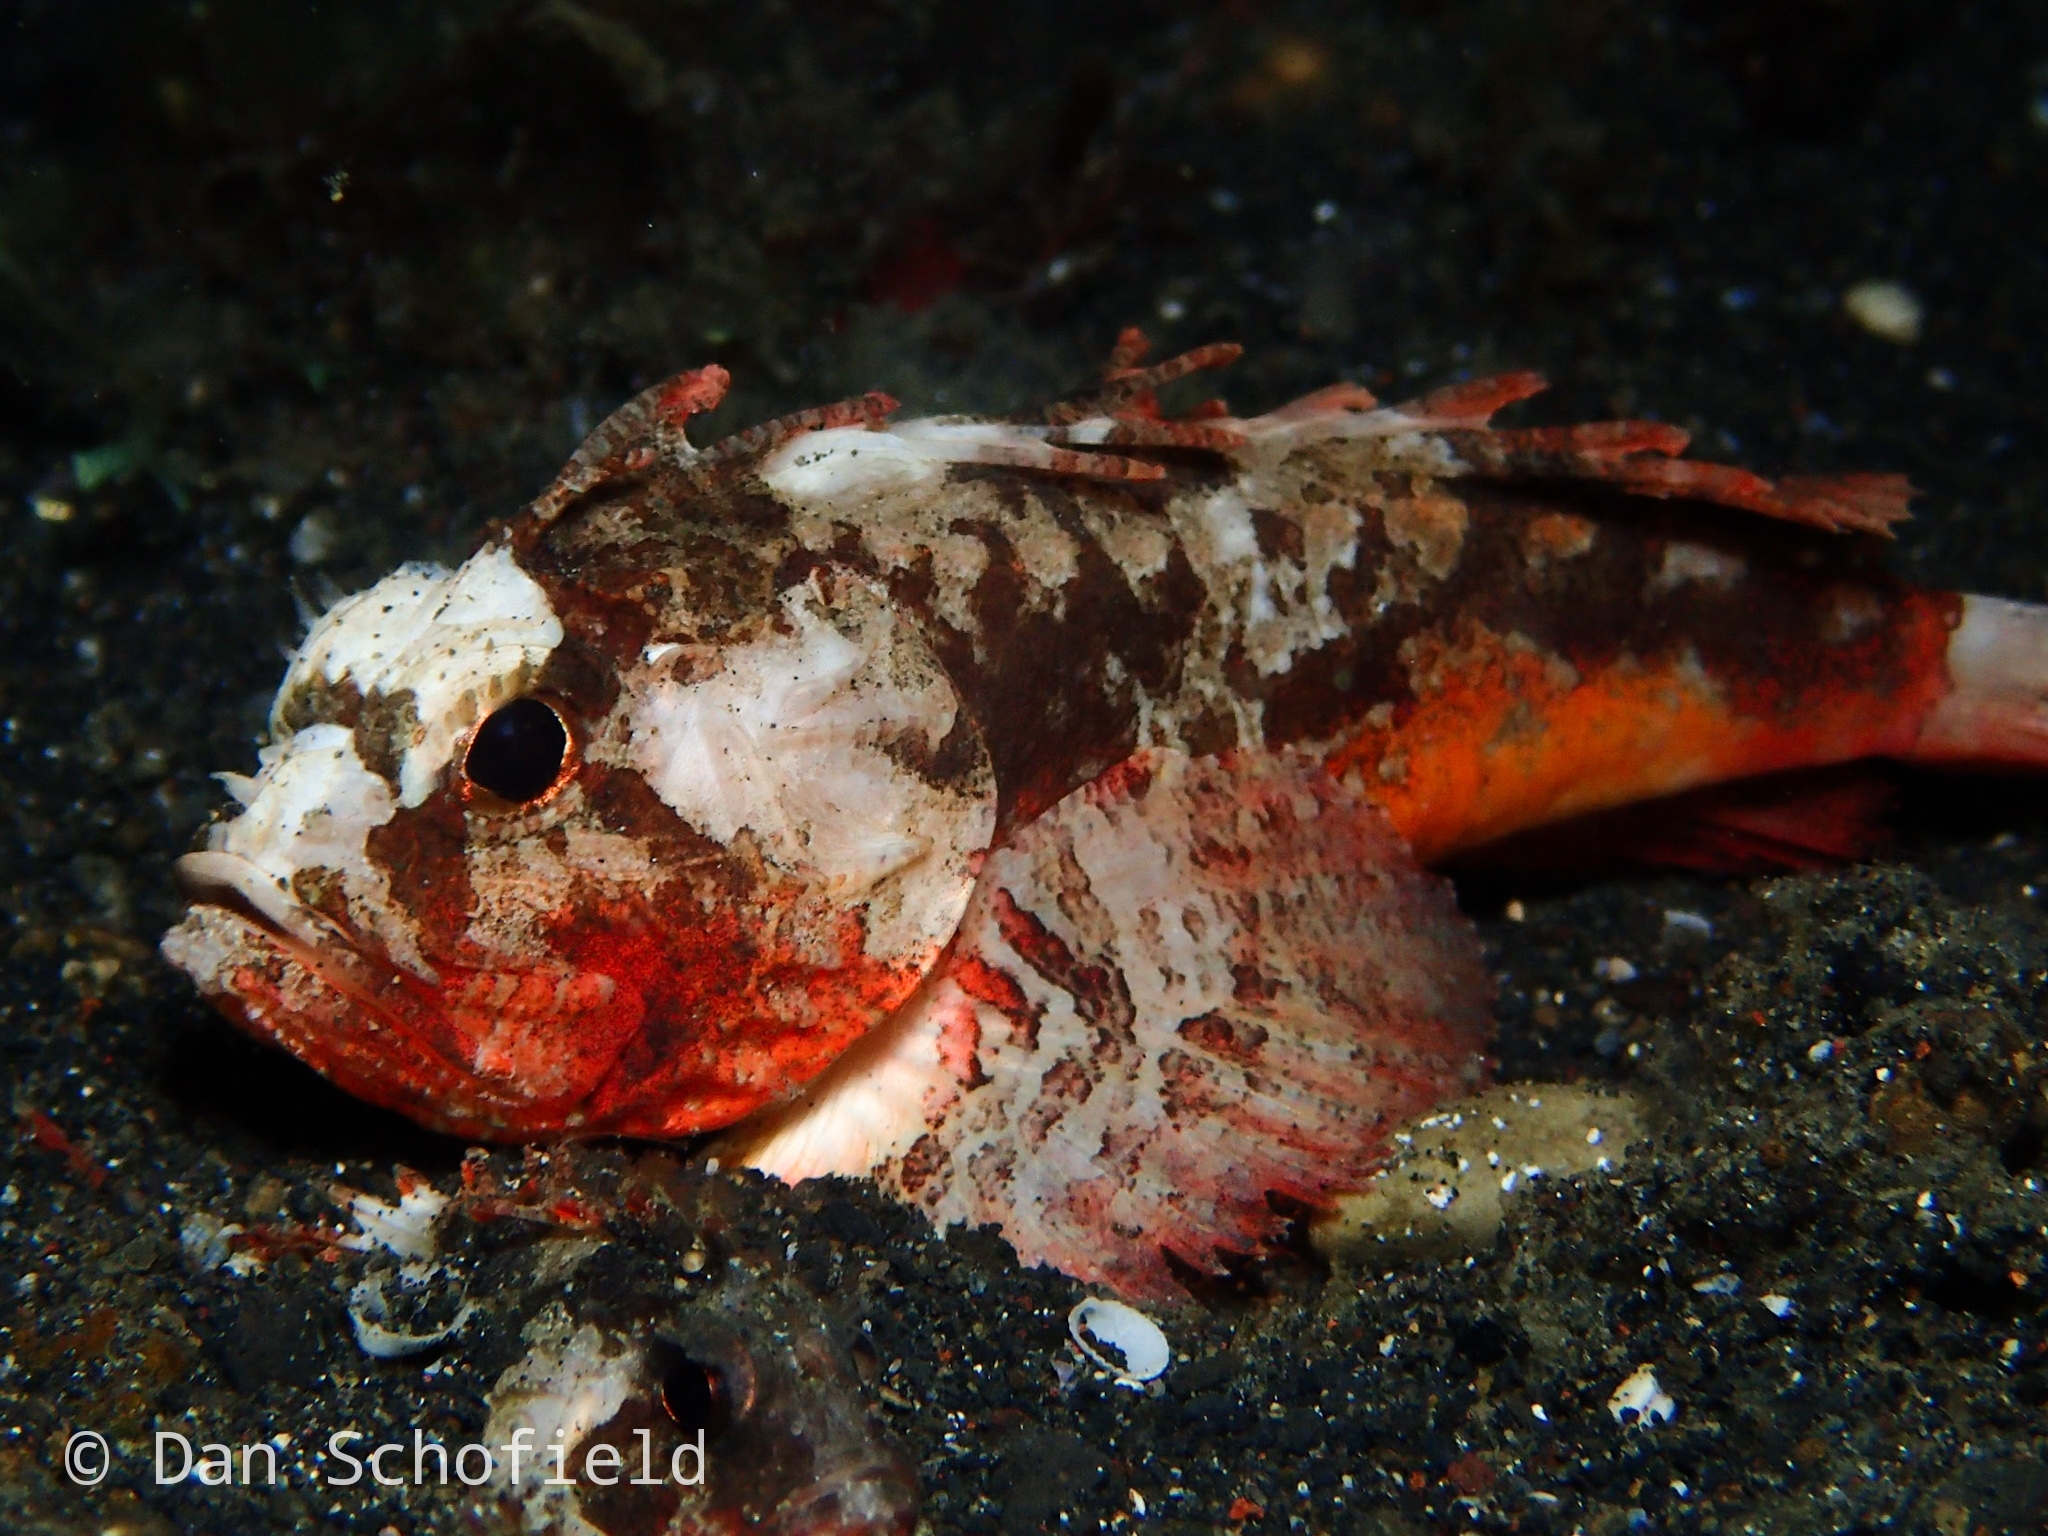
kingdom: Animalia
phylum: Chordata
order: Scorpaeniformes
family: Tetrarogidae
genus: Richardsonichthys
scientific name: Richardsonichthys leucogaster
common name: Whiteface waspfish
